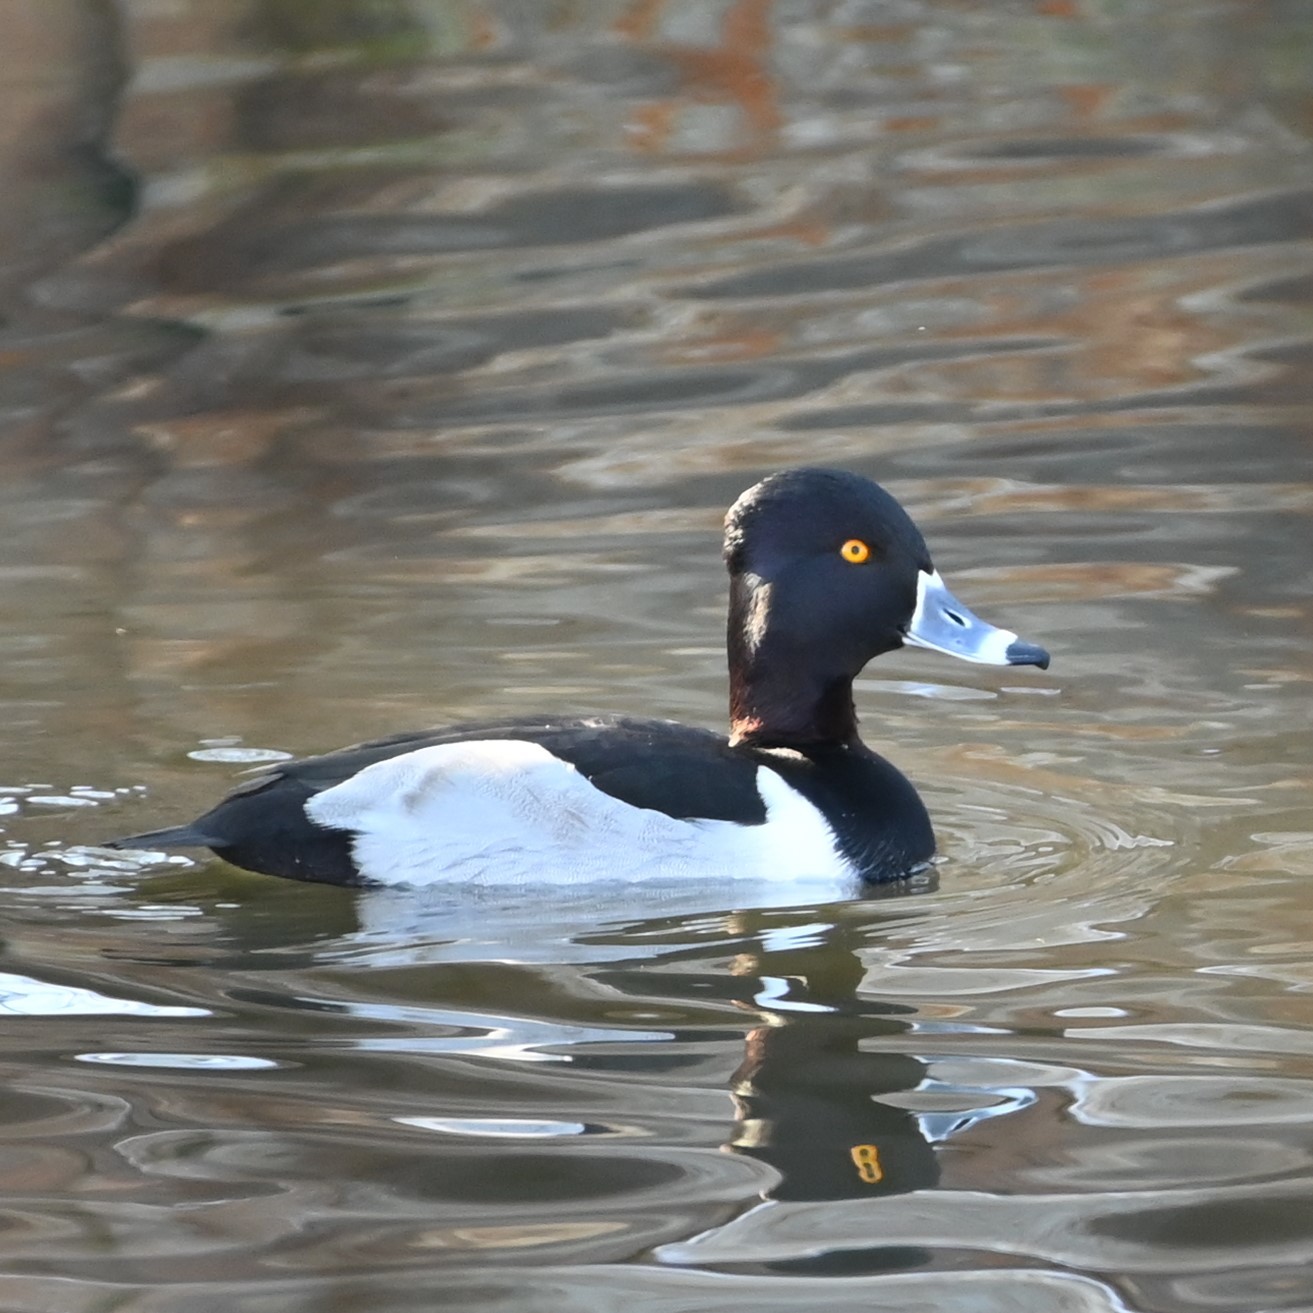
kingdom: Animalia
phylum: Chordata
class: Aves
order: Anseriformes
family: Anatidae
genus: Aythya
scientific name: Aythya collaris
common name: Ring-necked duck
